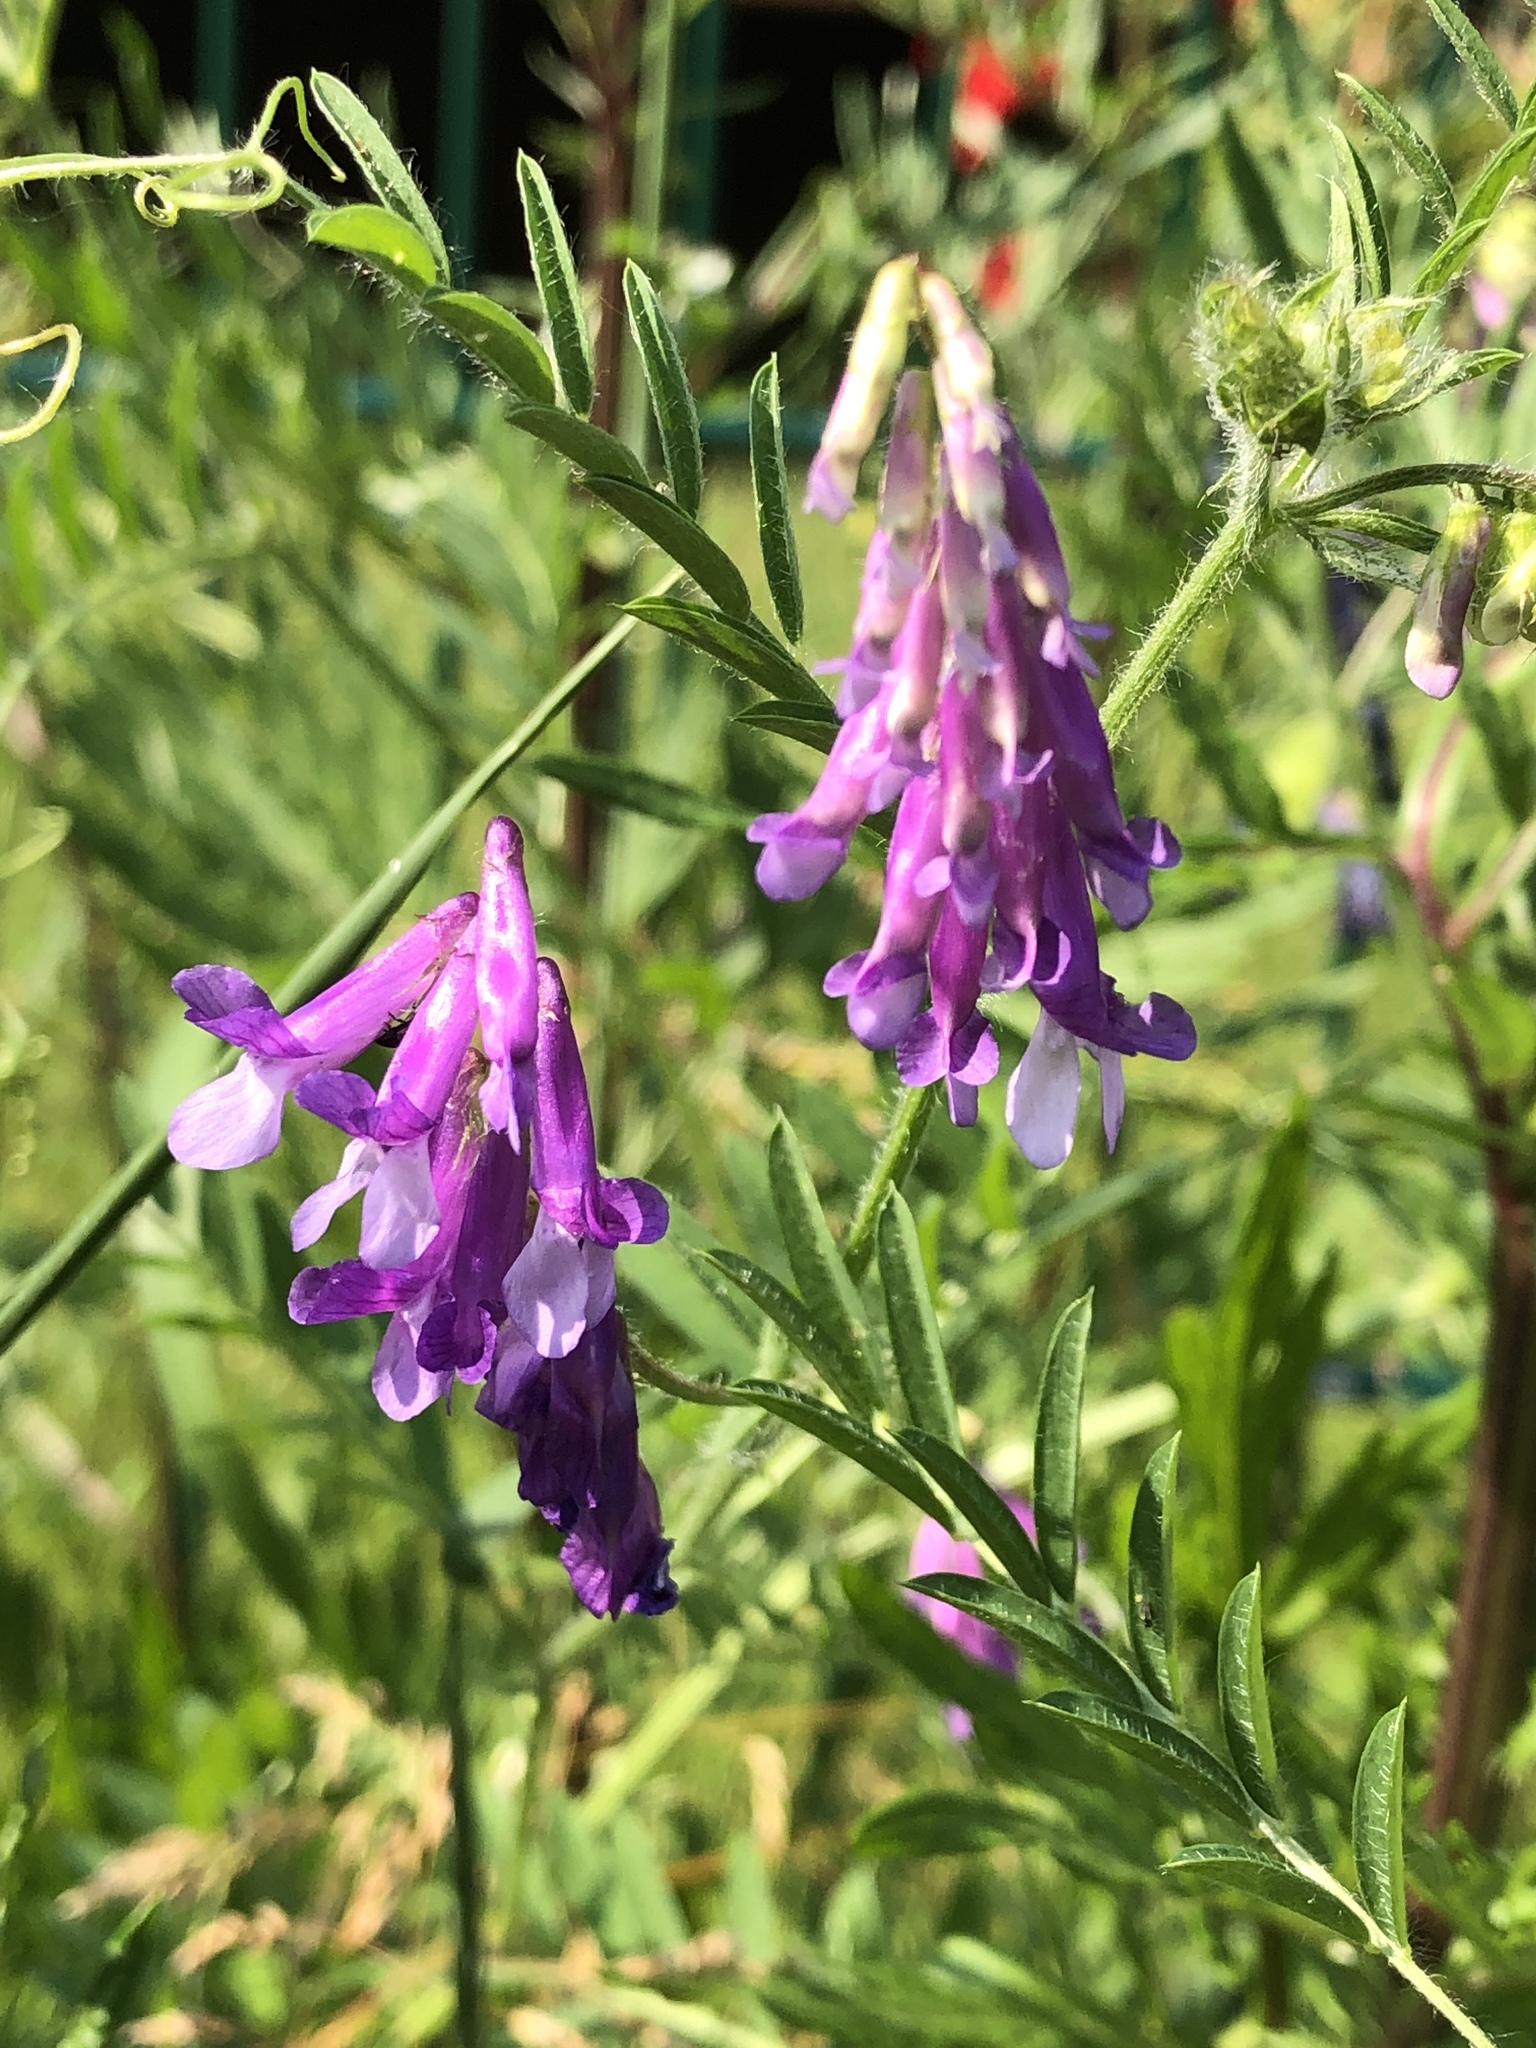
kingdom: Plantae
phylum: Tracheophyta
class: Magnoliopsida
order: Fabales
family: Fabaceae
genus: Vicia
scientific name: Vicia villosa
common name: Fodder vetch
